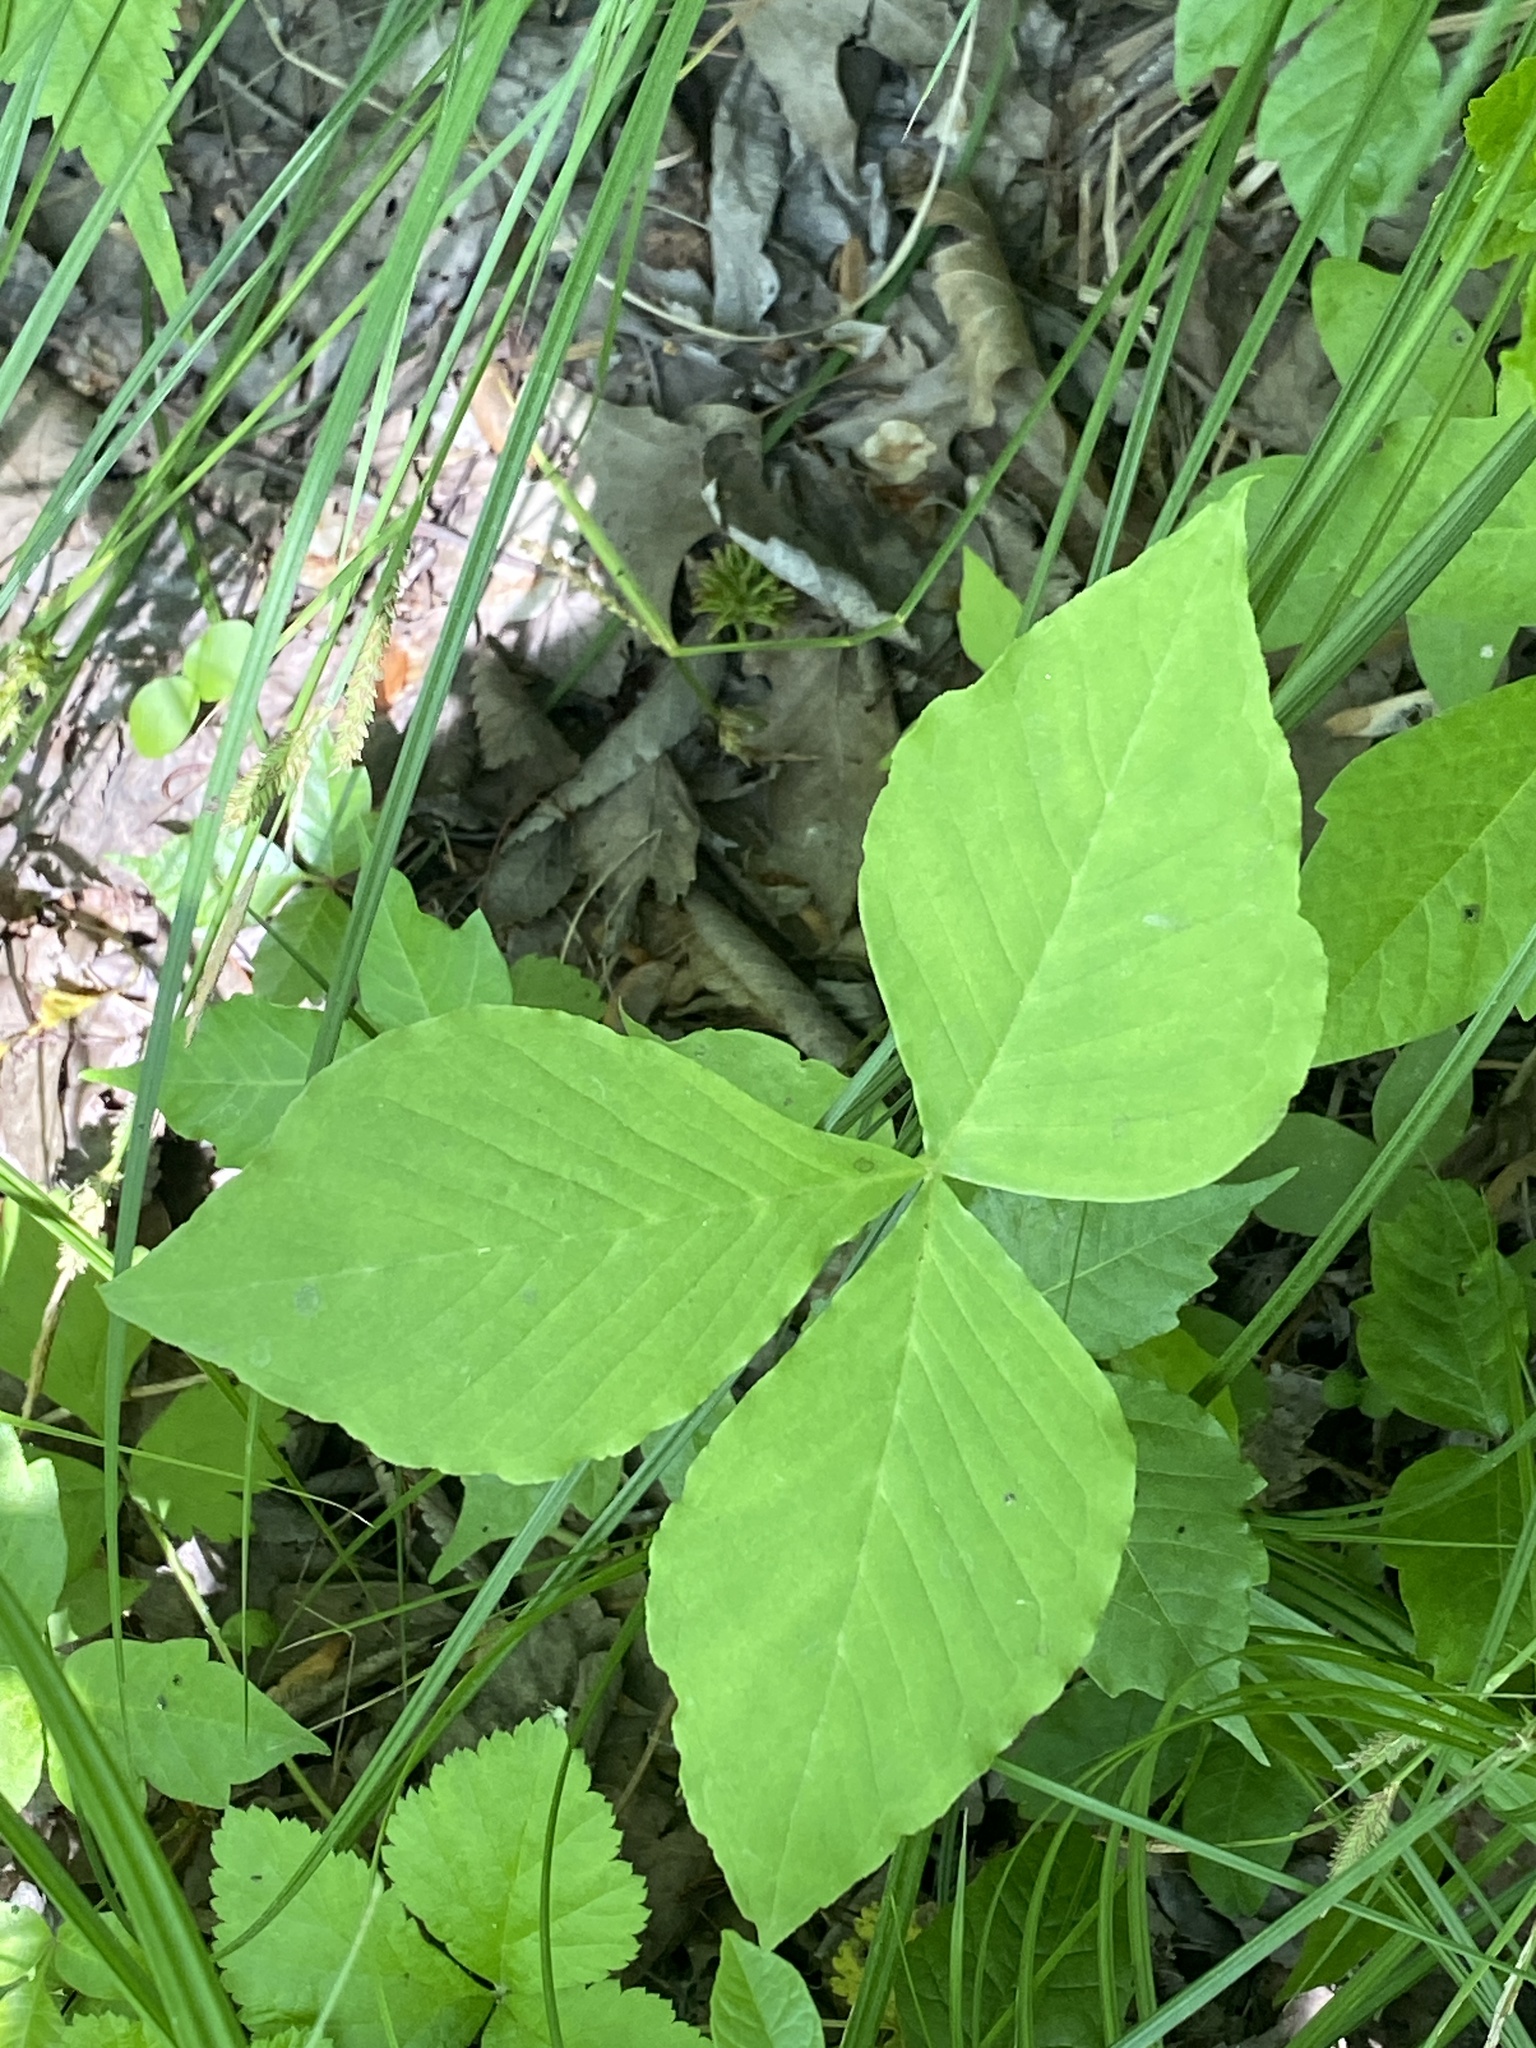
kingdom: Plantae
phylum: Tracheophyta
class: Liliopsida
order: Alismatales
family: Araceae
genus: Arisaema
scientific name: Arisaema triphyllum
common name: Jack-in-the-pulpit
